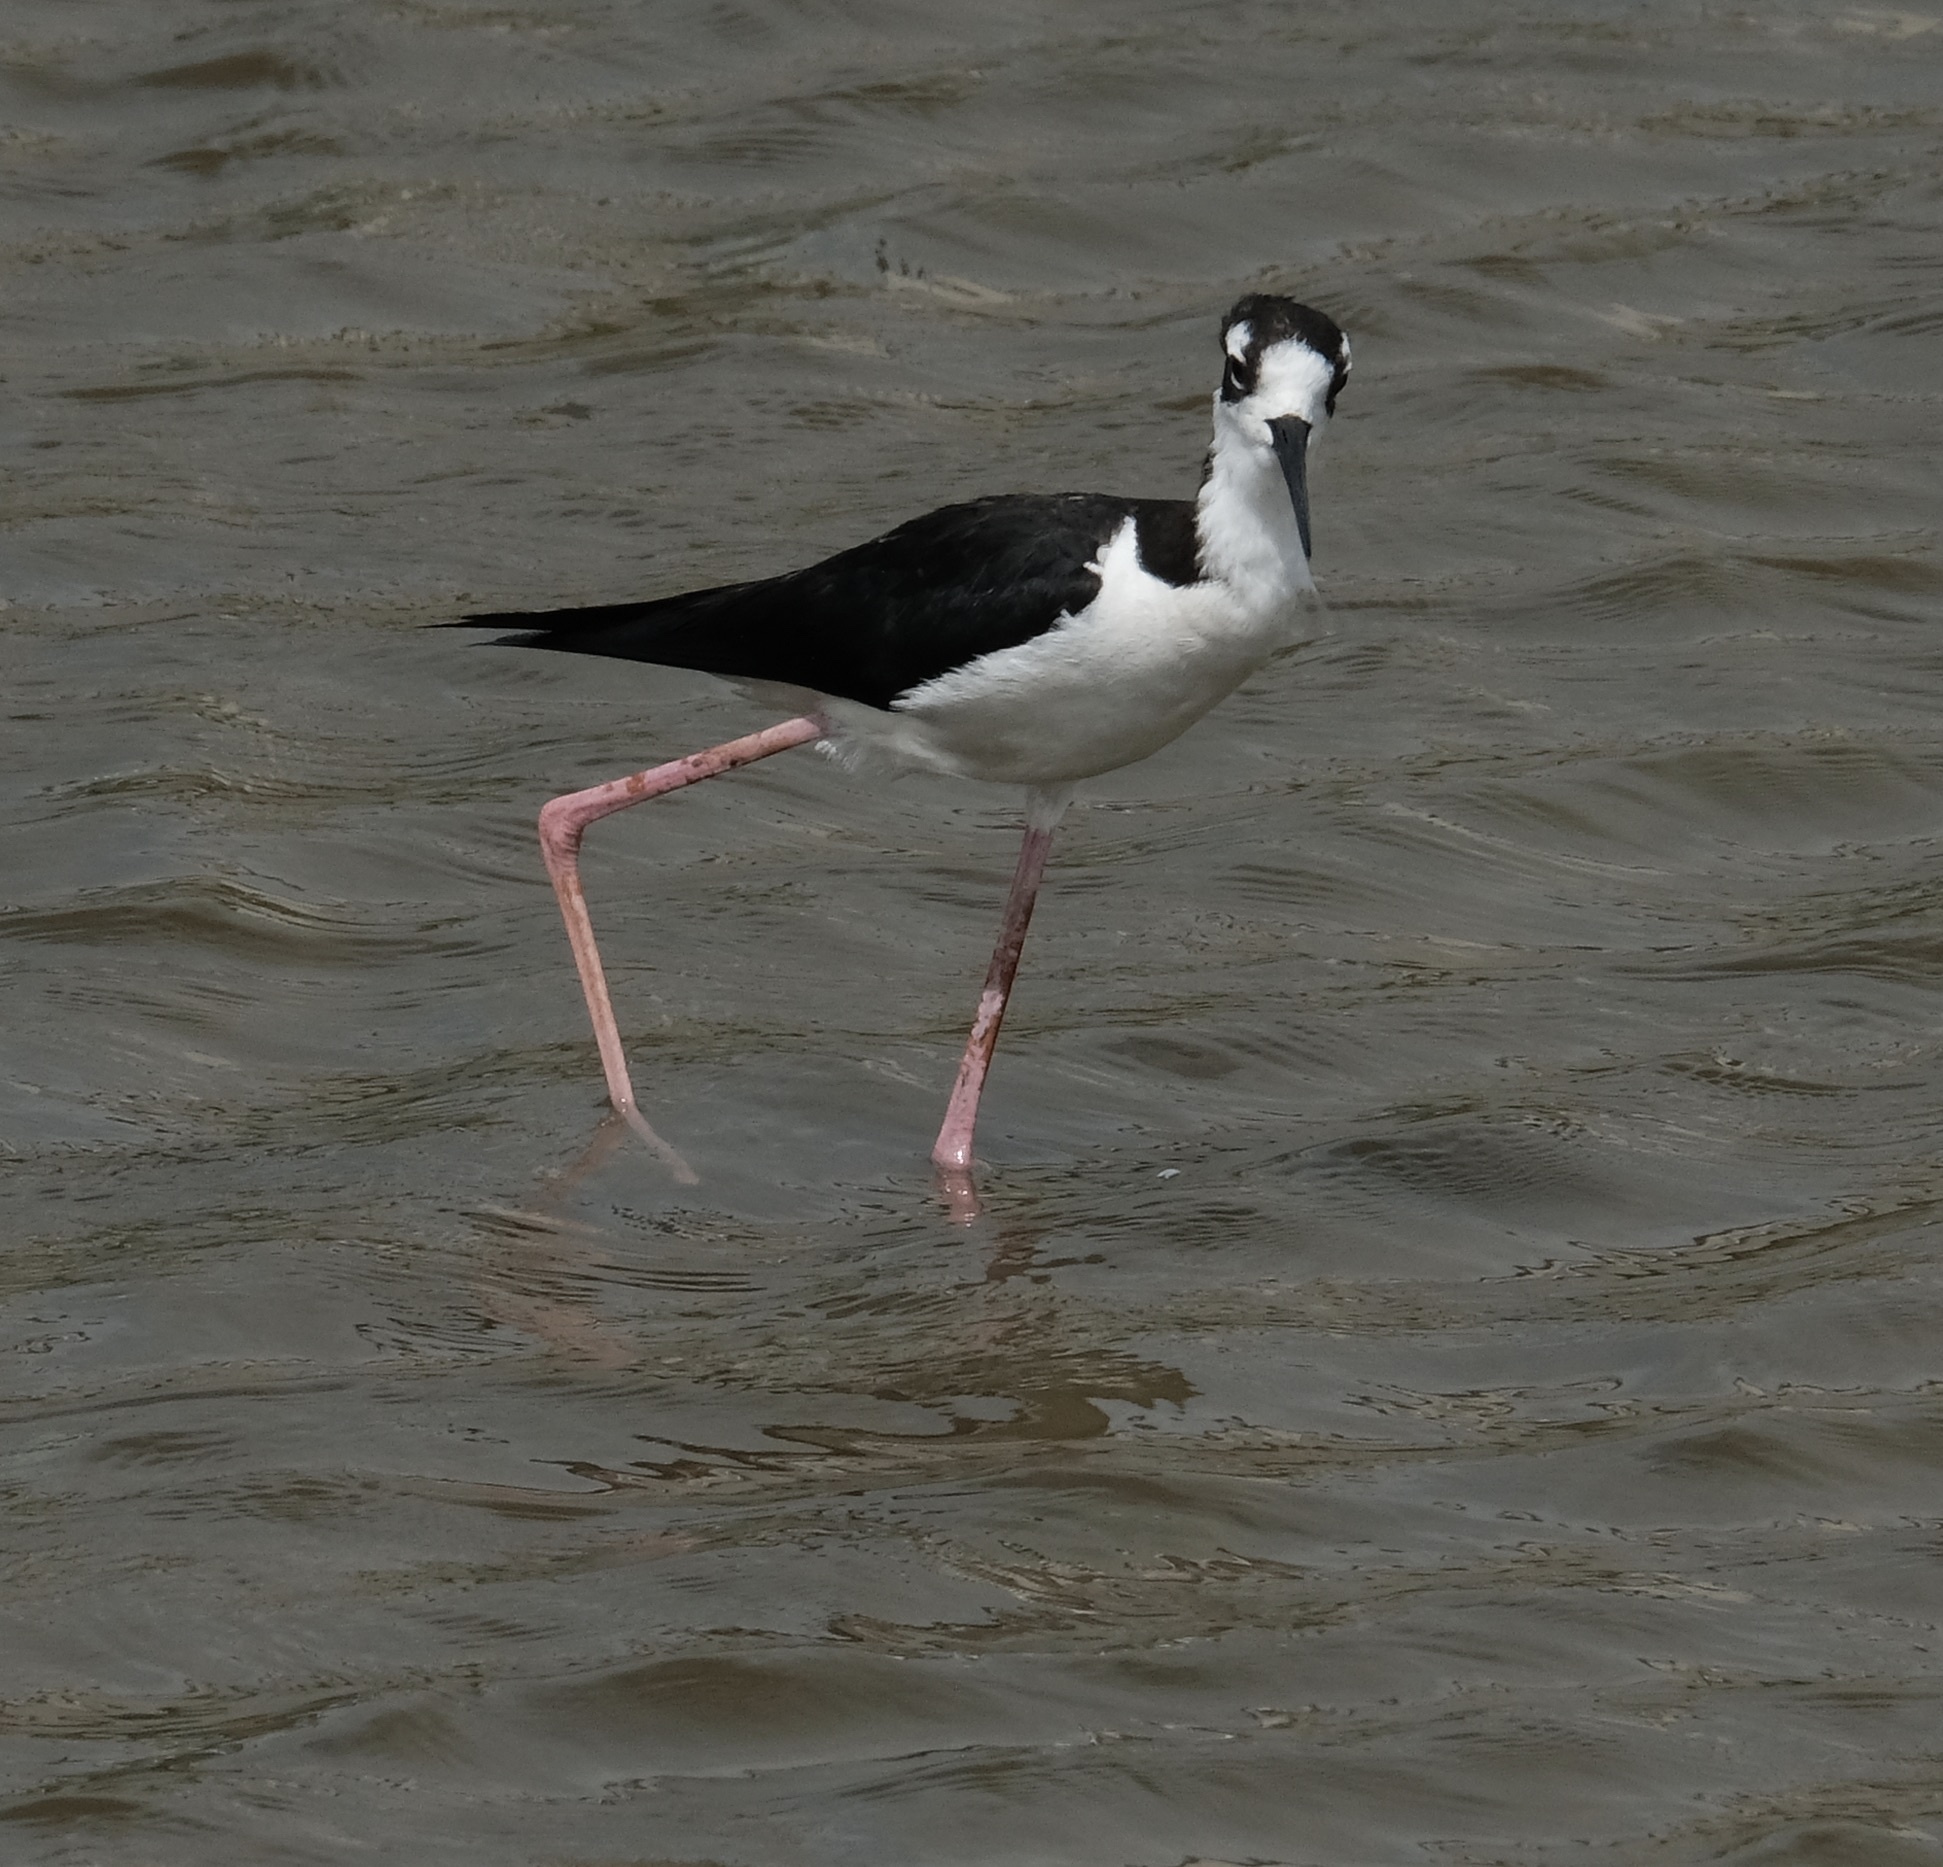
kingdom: Animalia
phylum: Chordata
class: Aves
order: Charadriiformes
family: Recurvirostridae
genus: Himantopus
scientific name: Himantopus mexicanus
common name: Black-necked stilt
